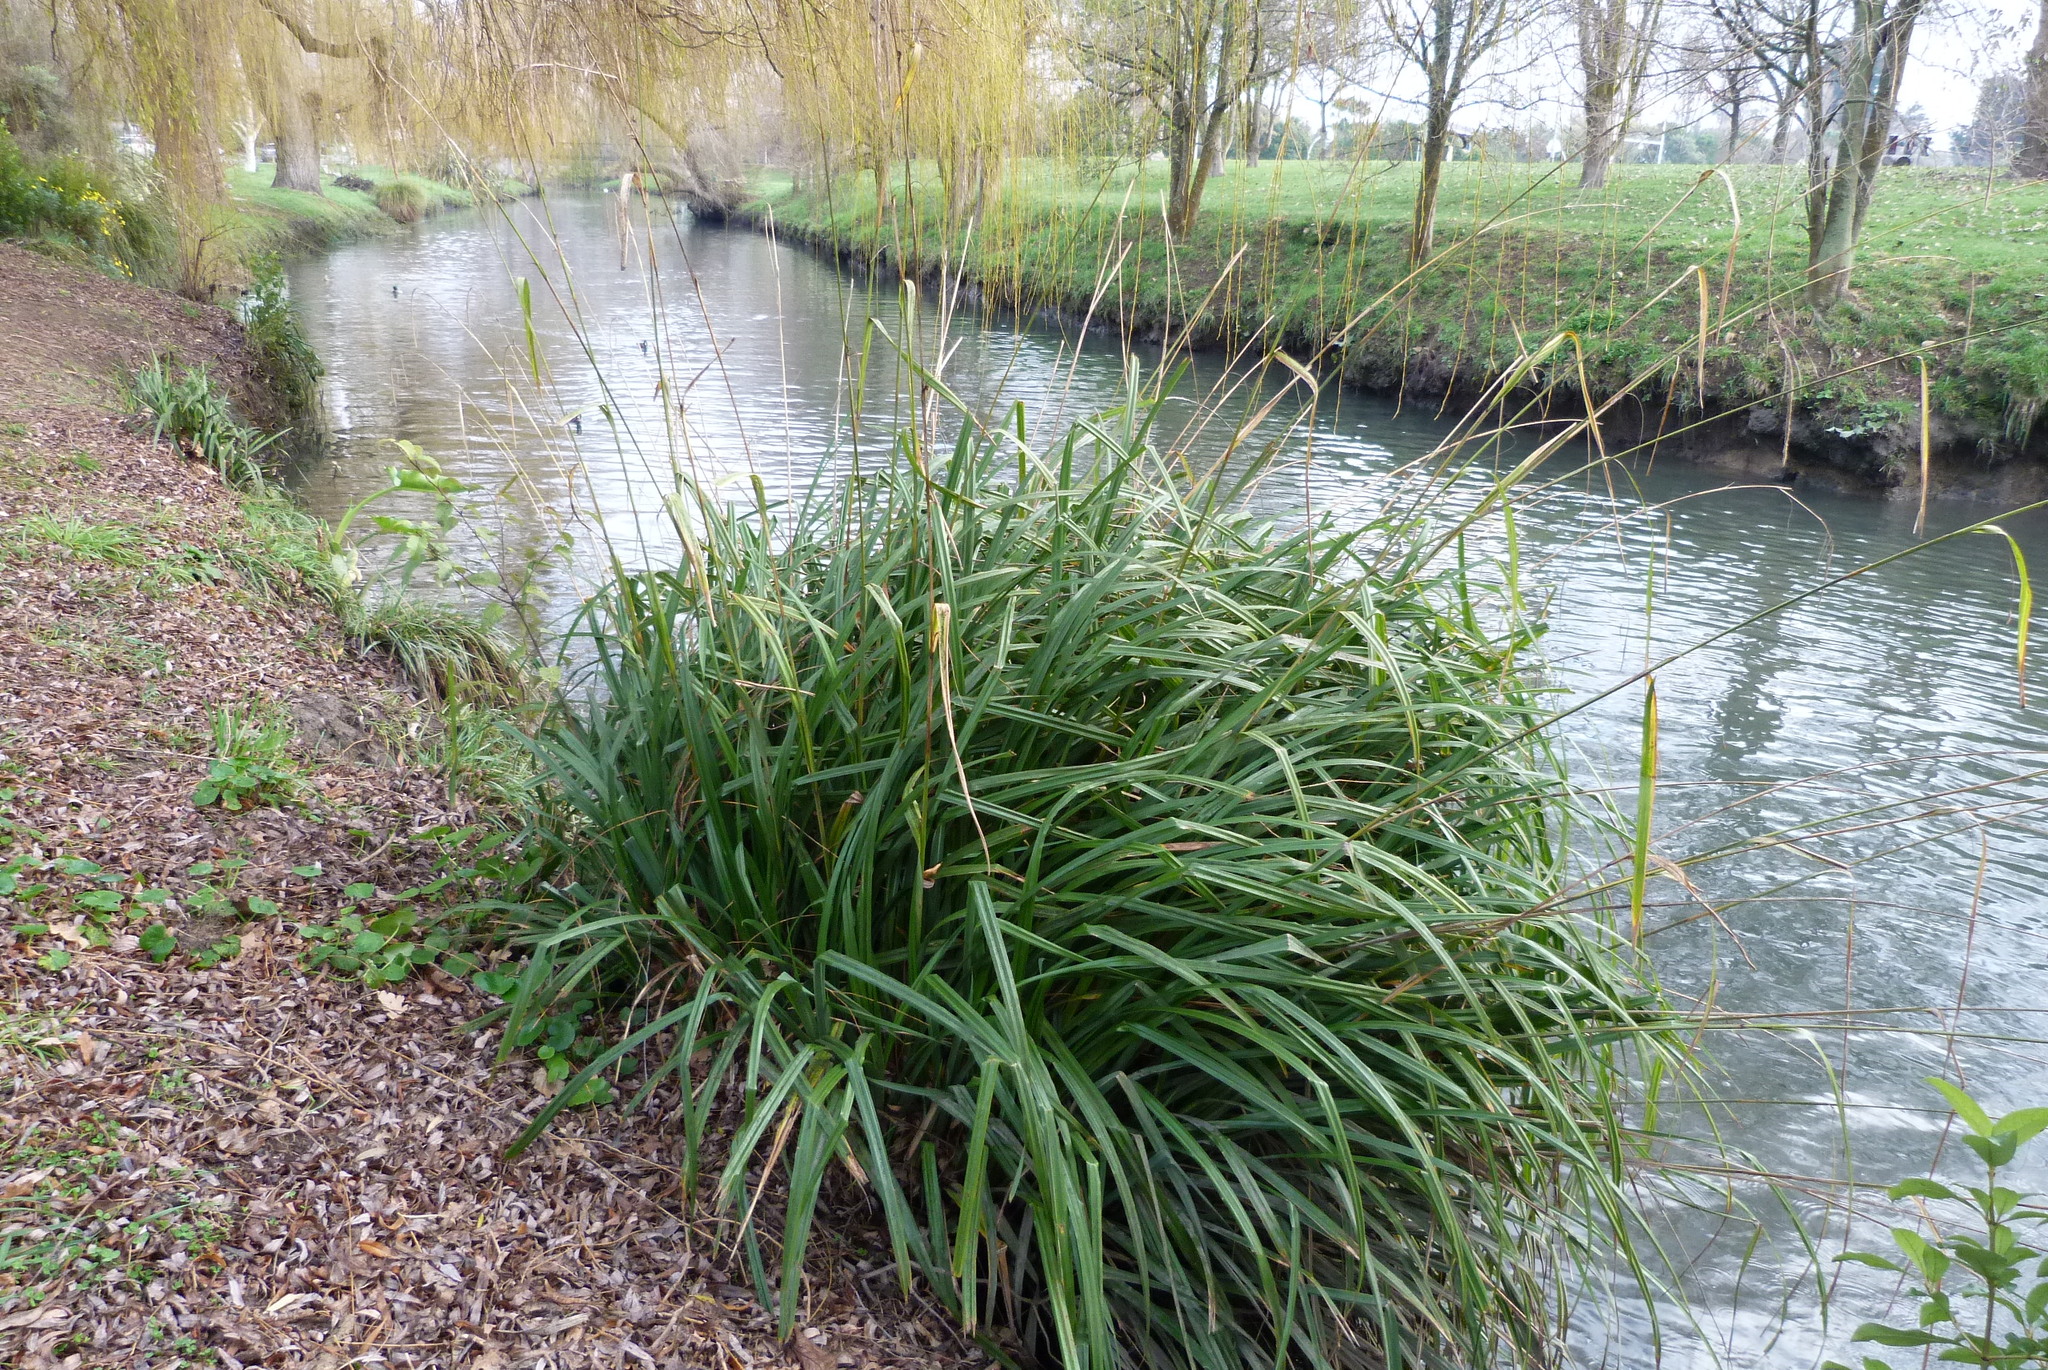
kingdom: Plantae
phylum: Tracheophyta
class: Liliopsida
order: Poales
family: Cyperaceae
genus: Carex
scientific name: Carex pendula
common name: Pendulous sedge
